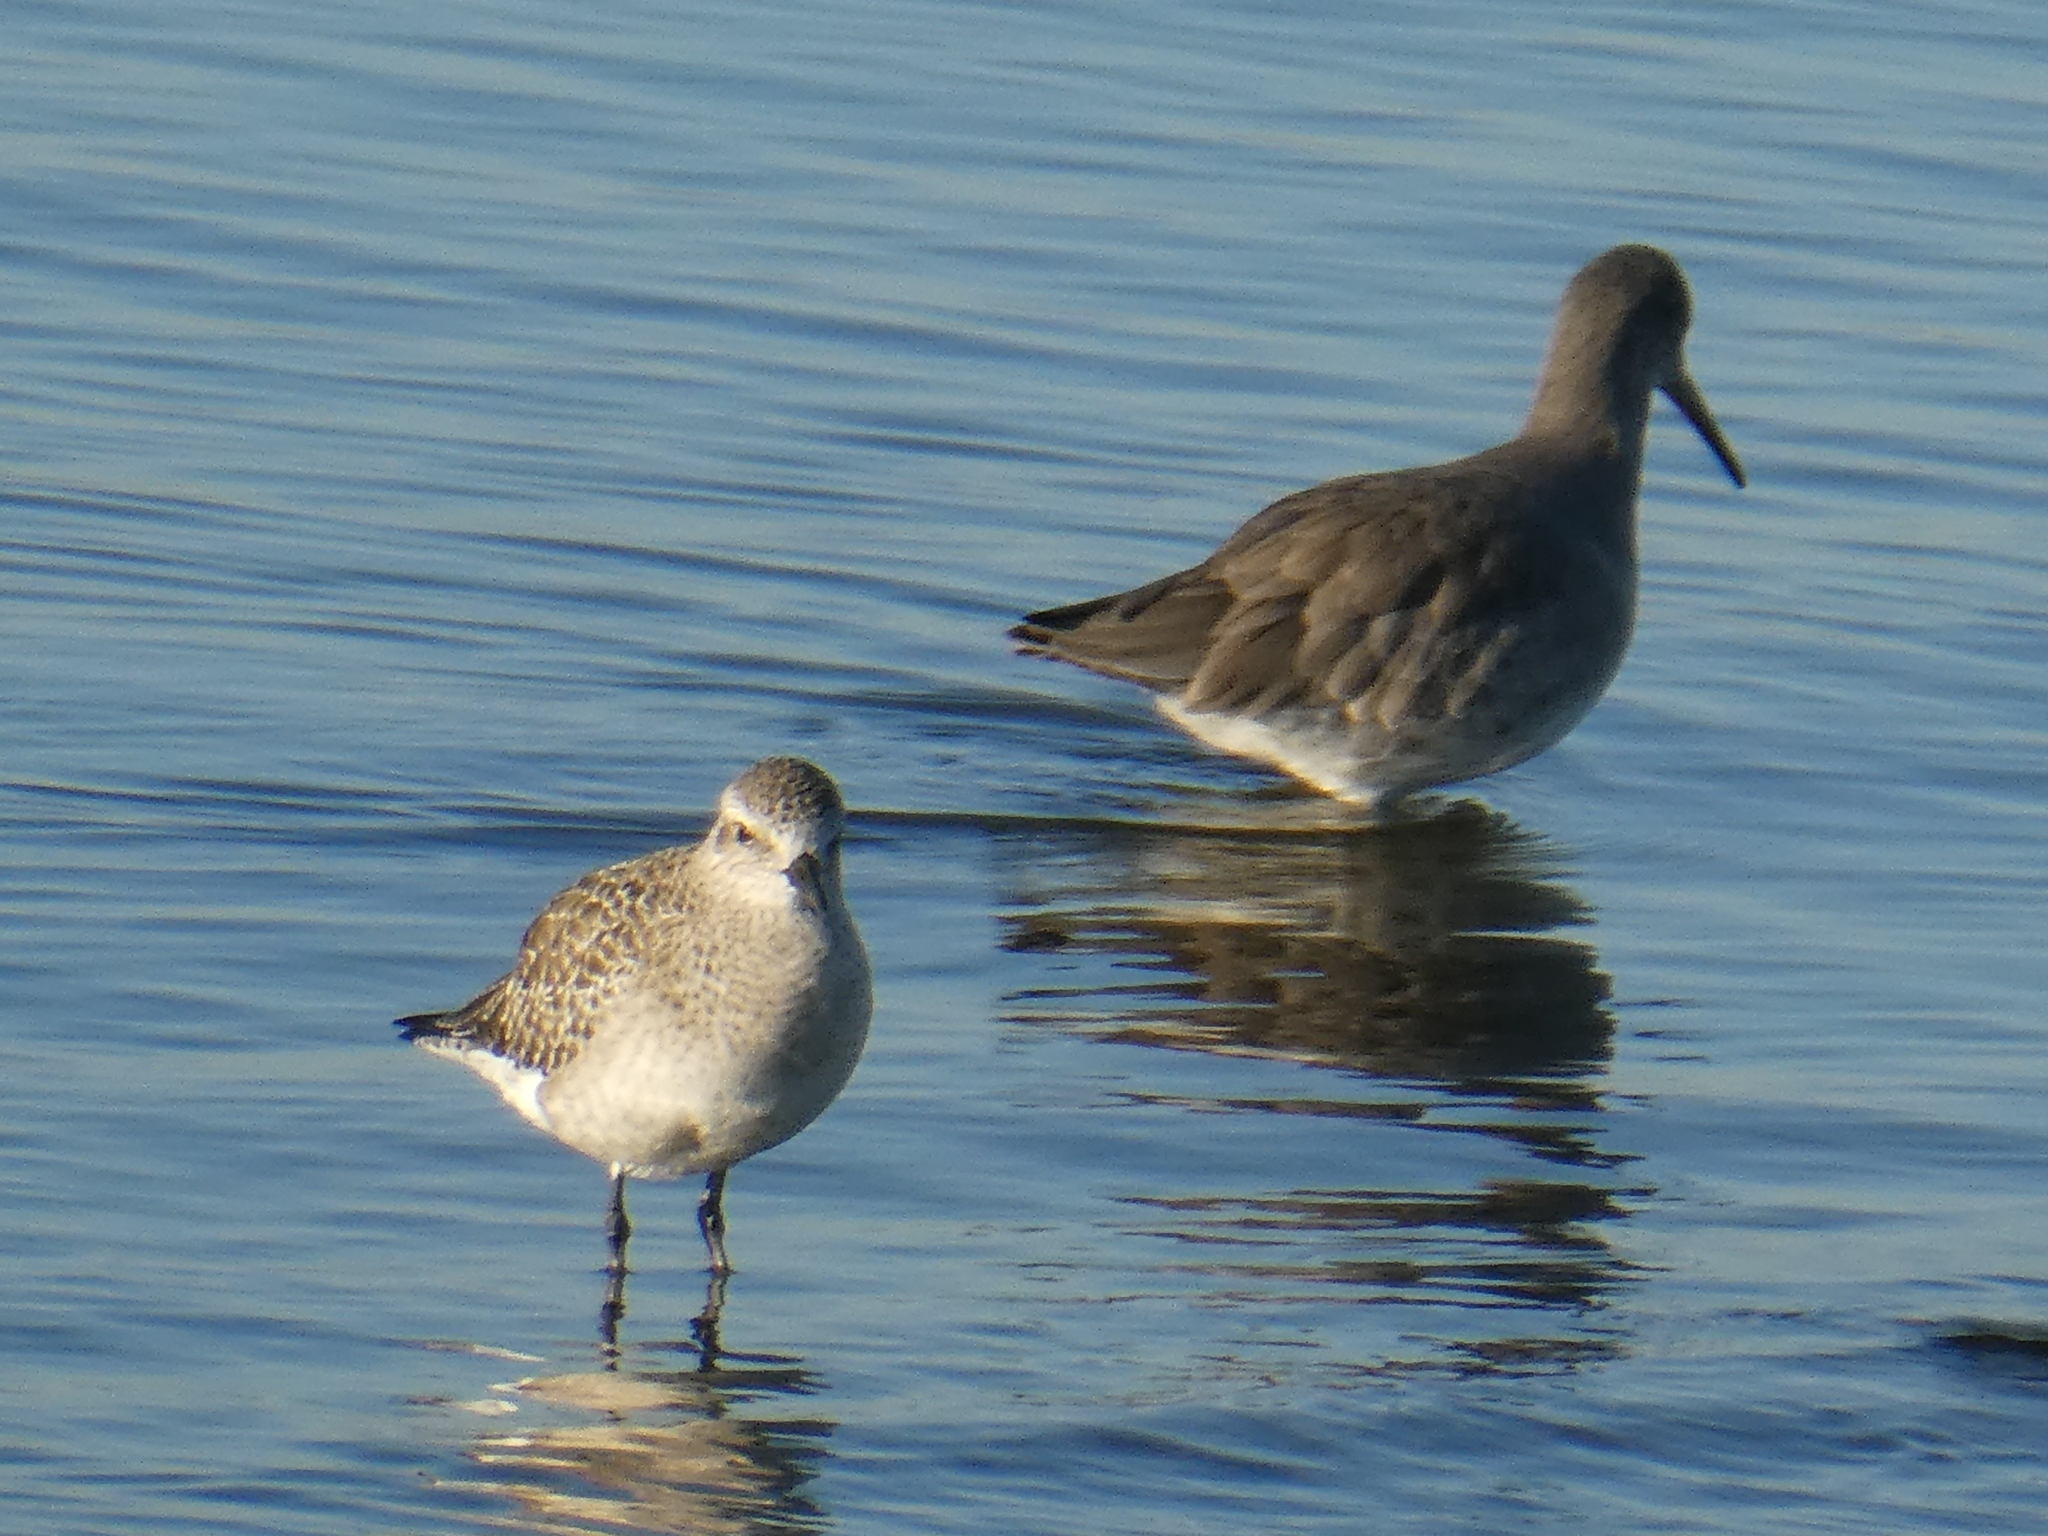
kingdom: Animalia
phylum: Chordata
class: Aves
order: Charadriiformes
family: Charadriidae
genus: Pluvialis
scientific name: Pluvialis squatarola
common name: Grey plover
